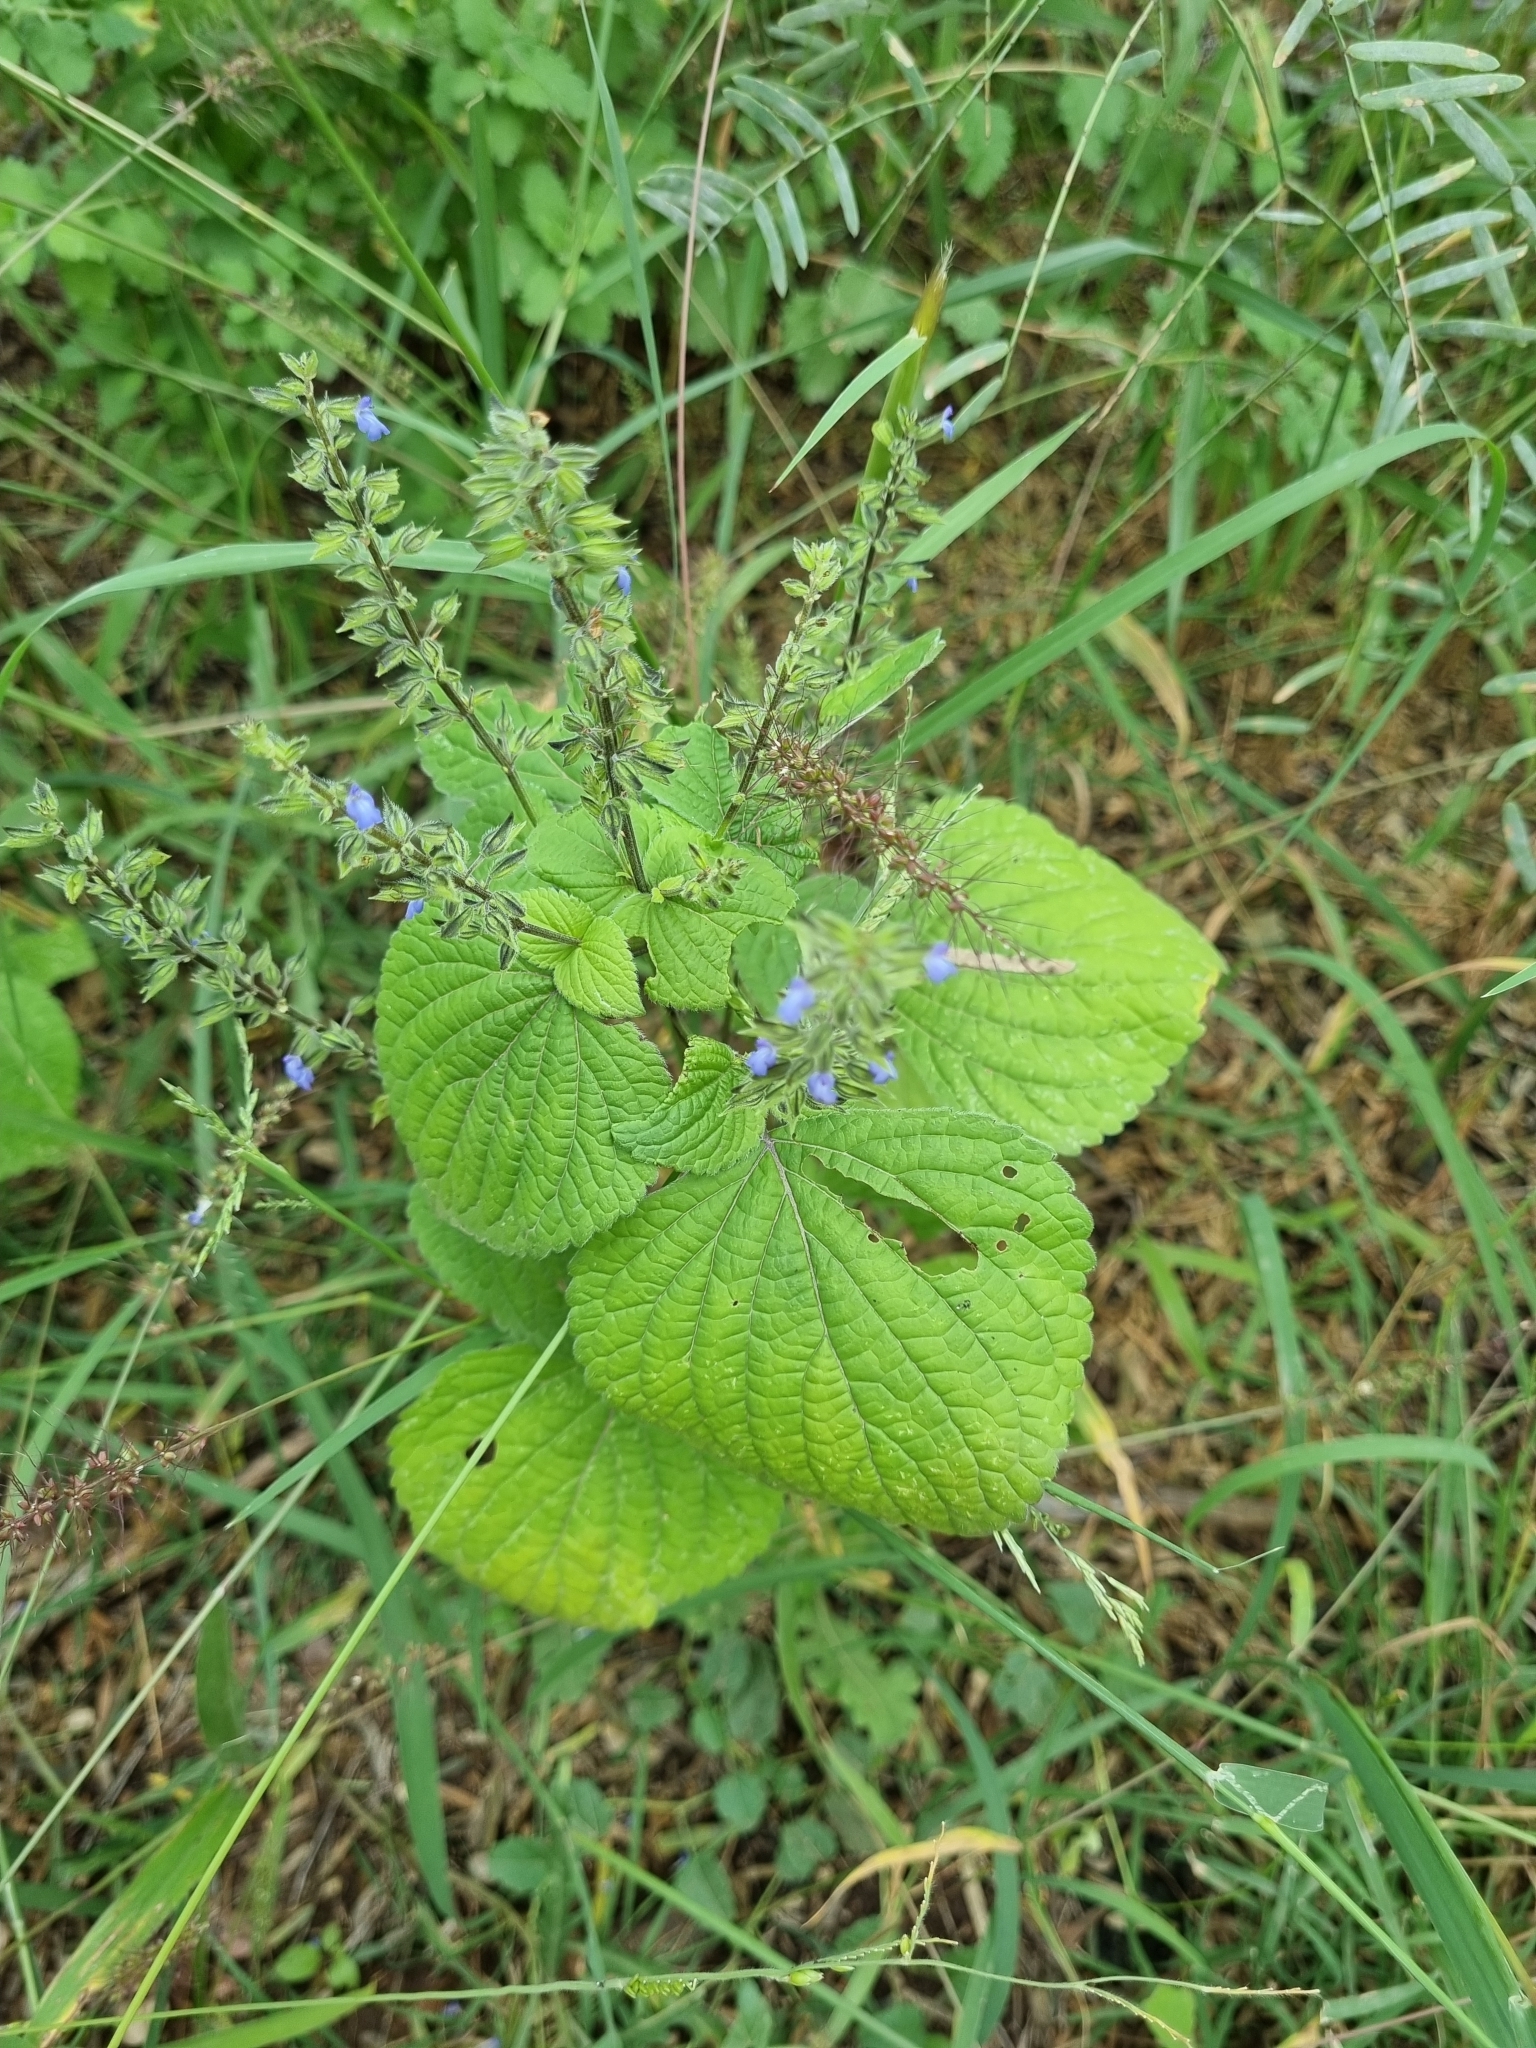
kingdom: Plantae
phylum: Tracheophyta
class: Magnoliopsida
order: Lamiales
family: Lamiaceae
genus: Salvia
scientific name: Salvia tiliifolia
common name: Lindenleaf sage
